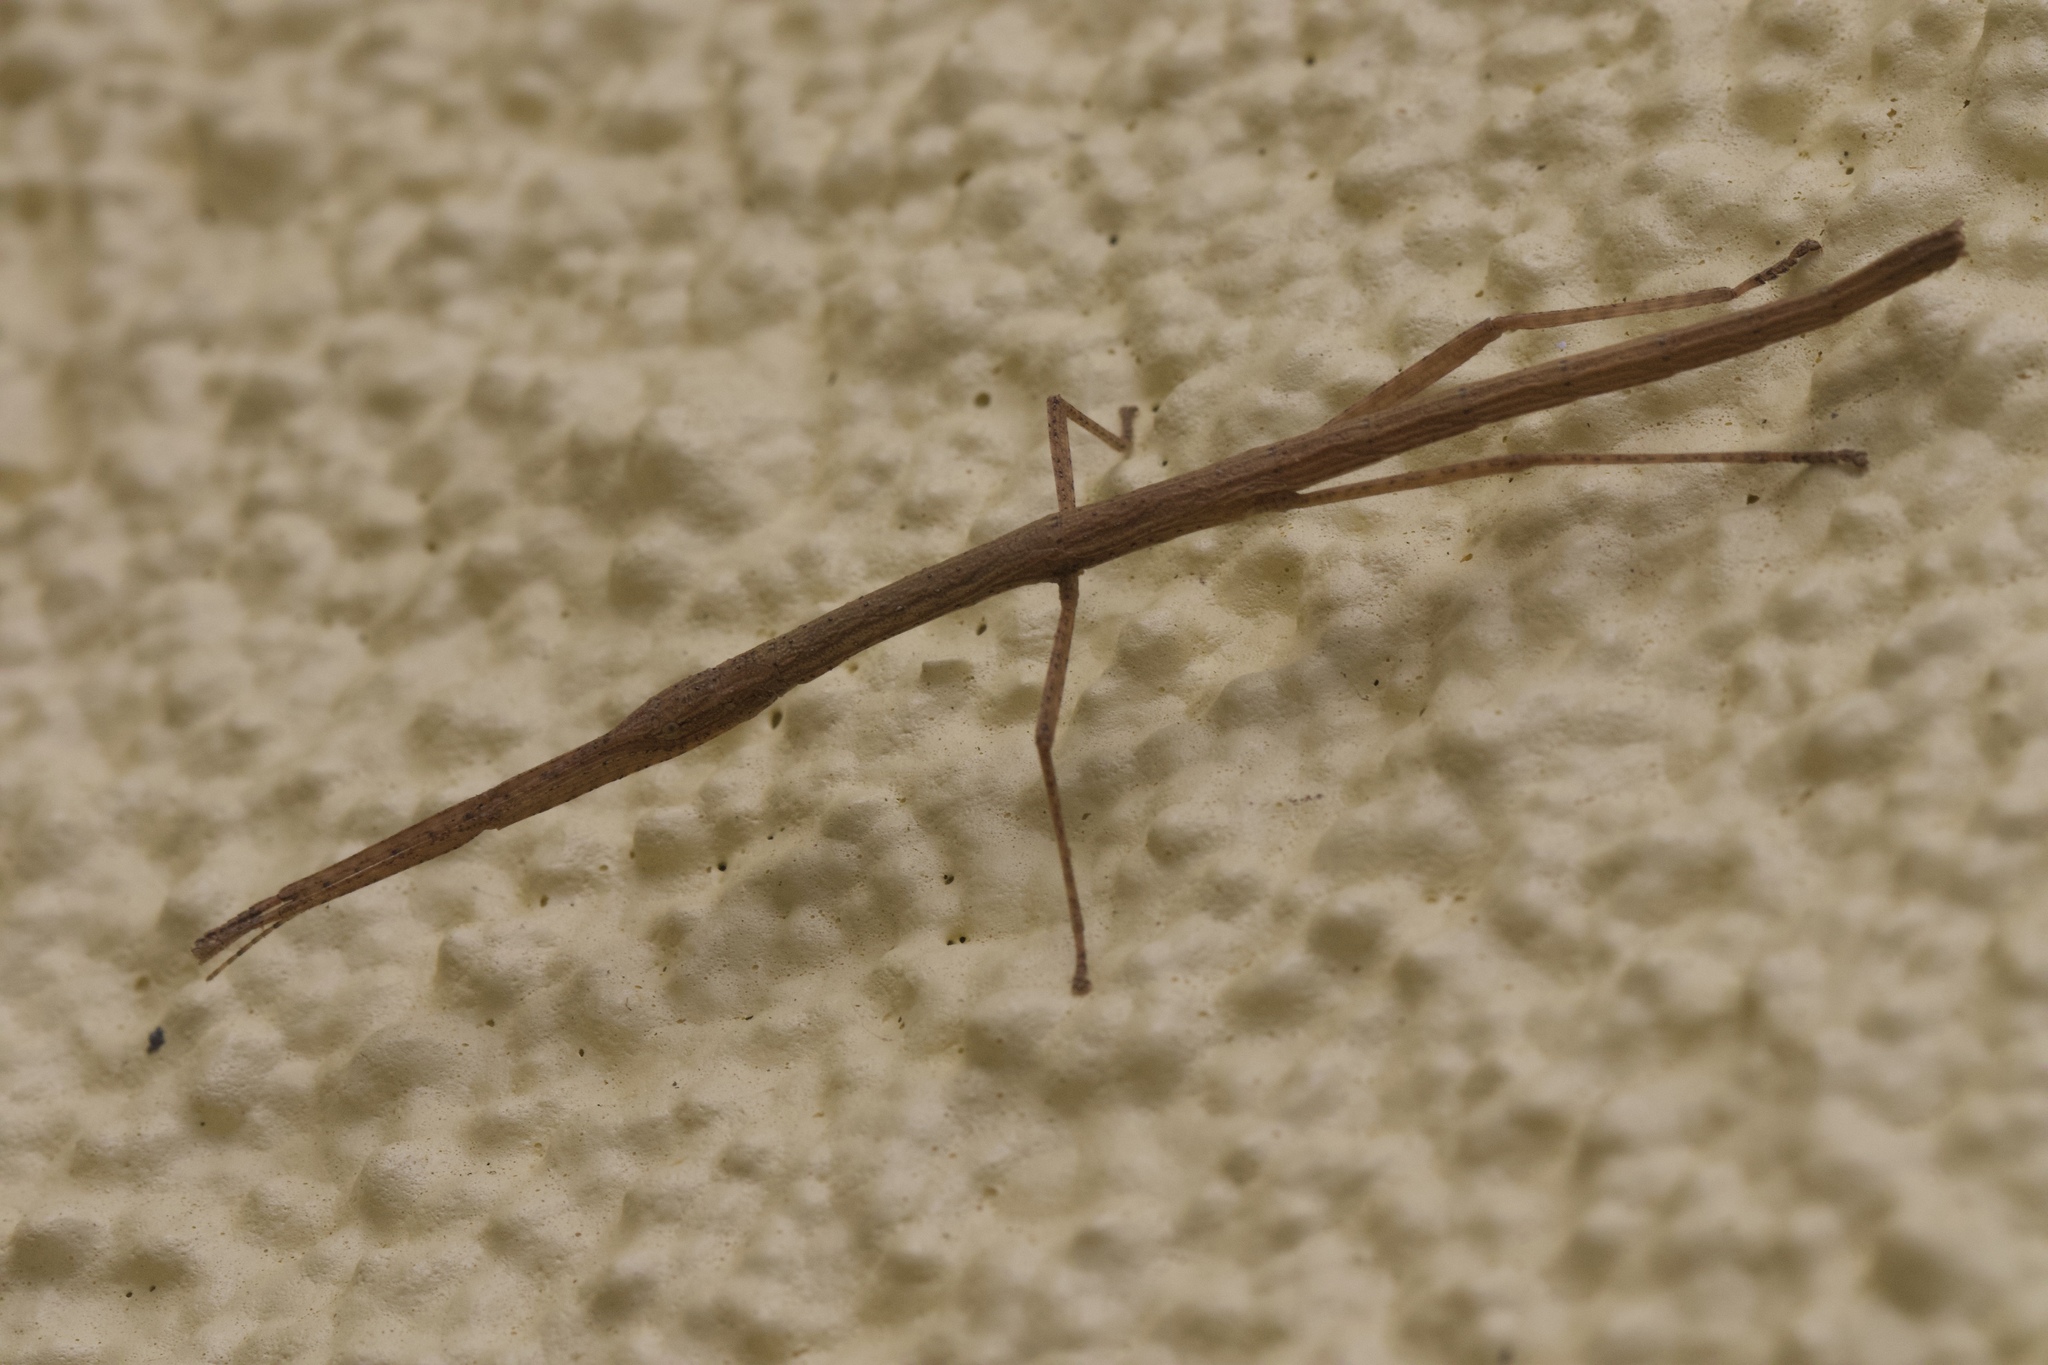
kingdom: Animalia
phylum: Arthropoda
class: Insecta
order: Phasmida
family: Lonchodidae
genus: Carausius
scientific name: Carausius morosus
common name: Indian stick insect
